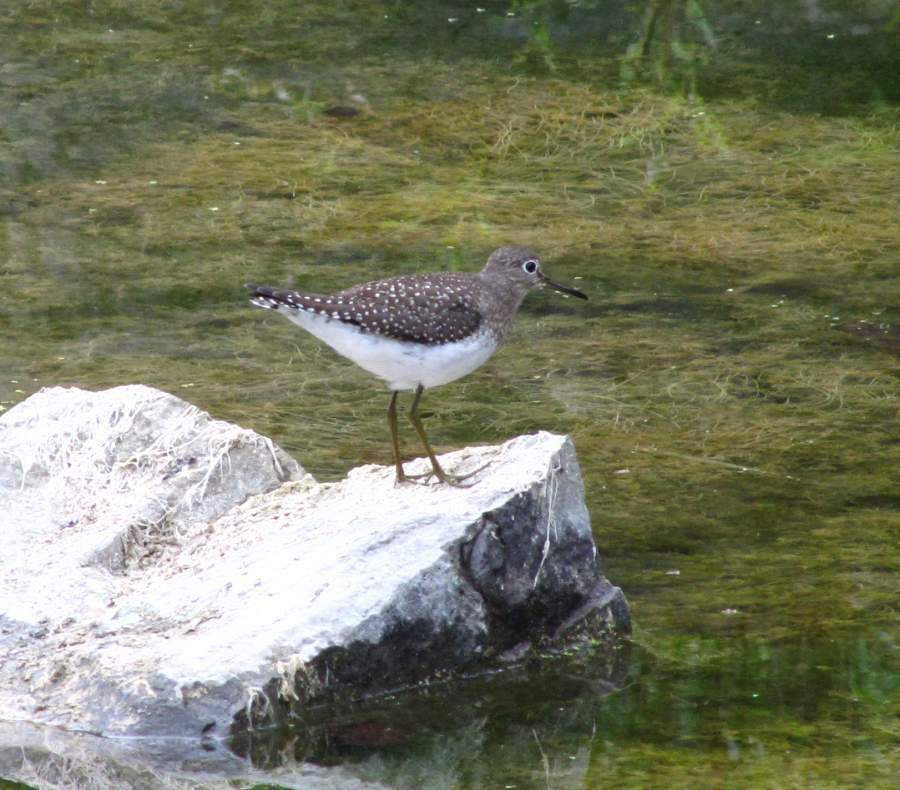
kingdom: Animalia
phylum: Chordata
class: Aves
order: Charadriiformes
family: Scolopacidae
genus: Tringa
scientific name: Tringa solitaria
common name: Solitary sandpiper
